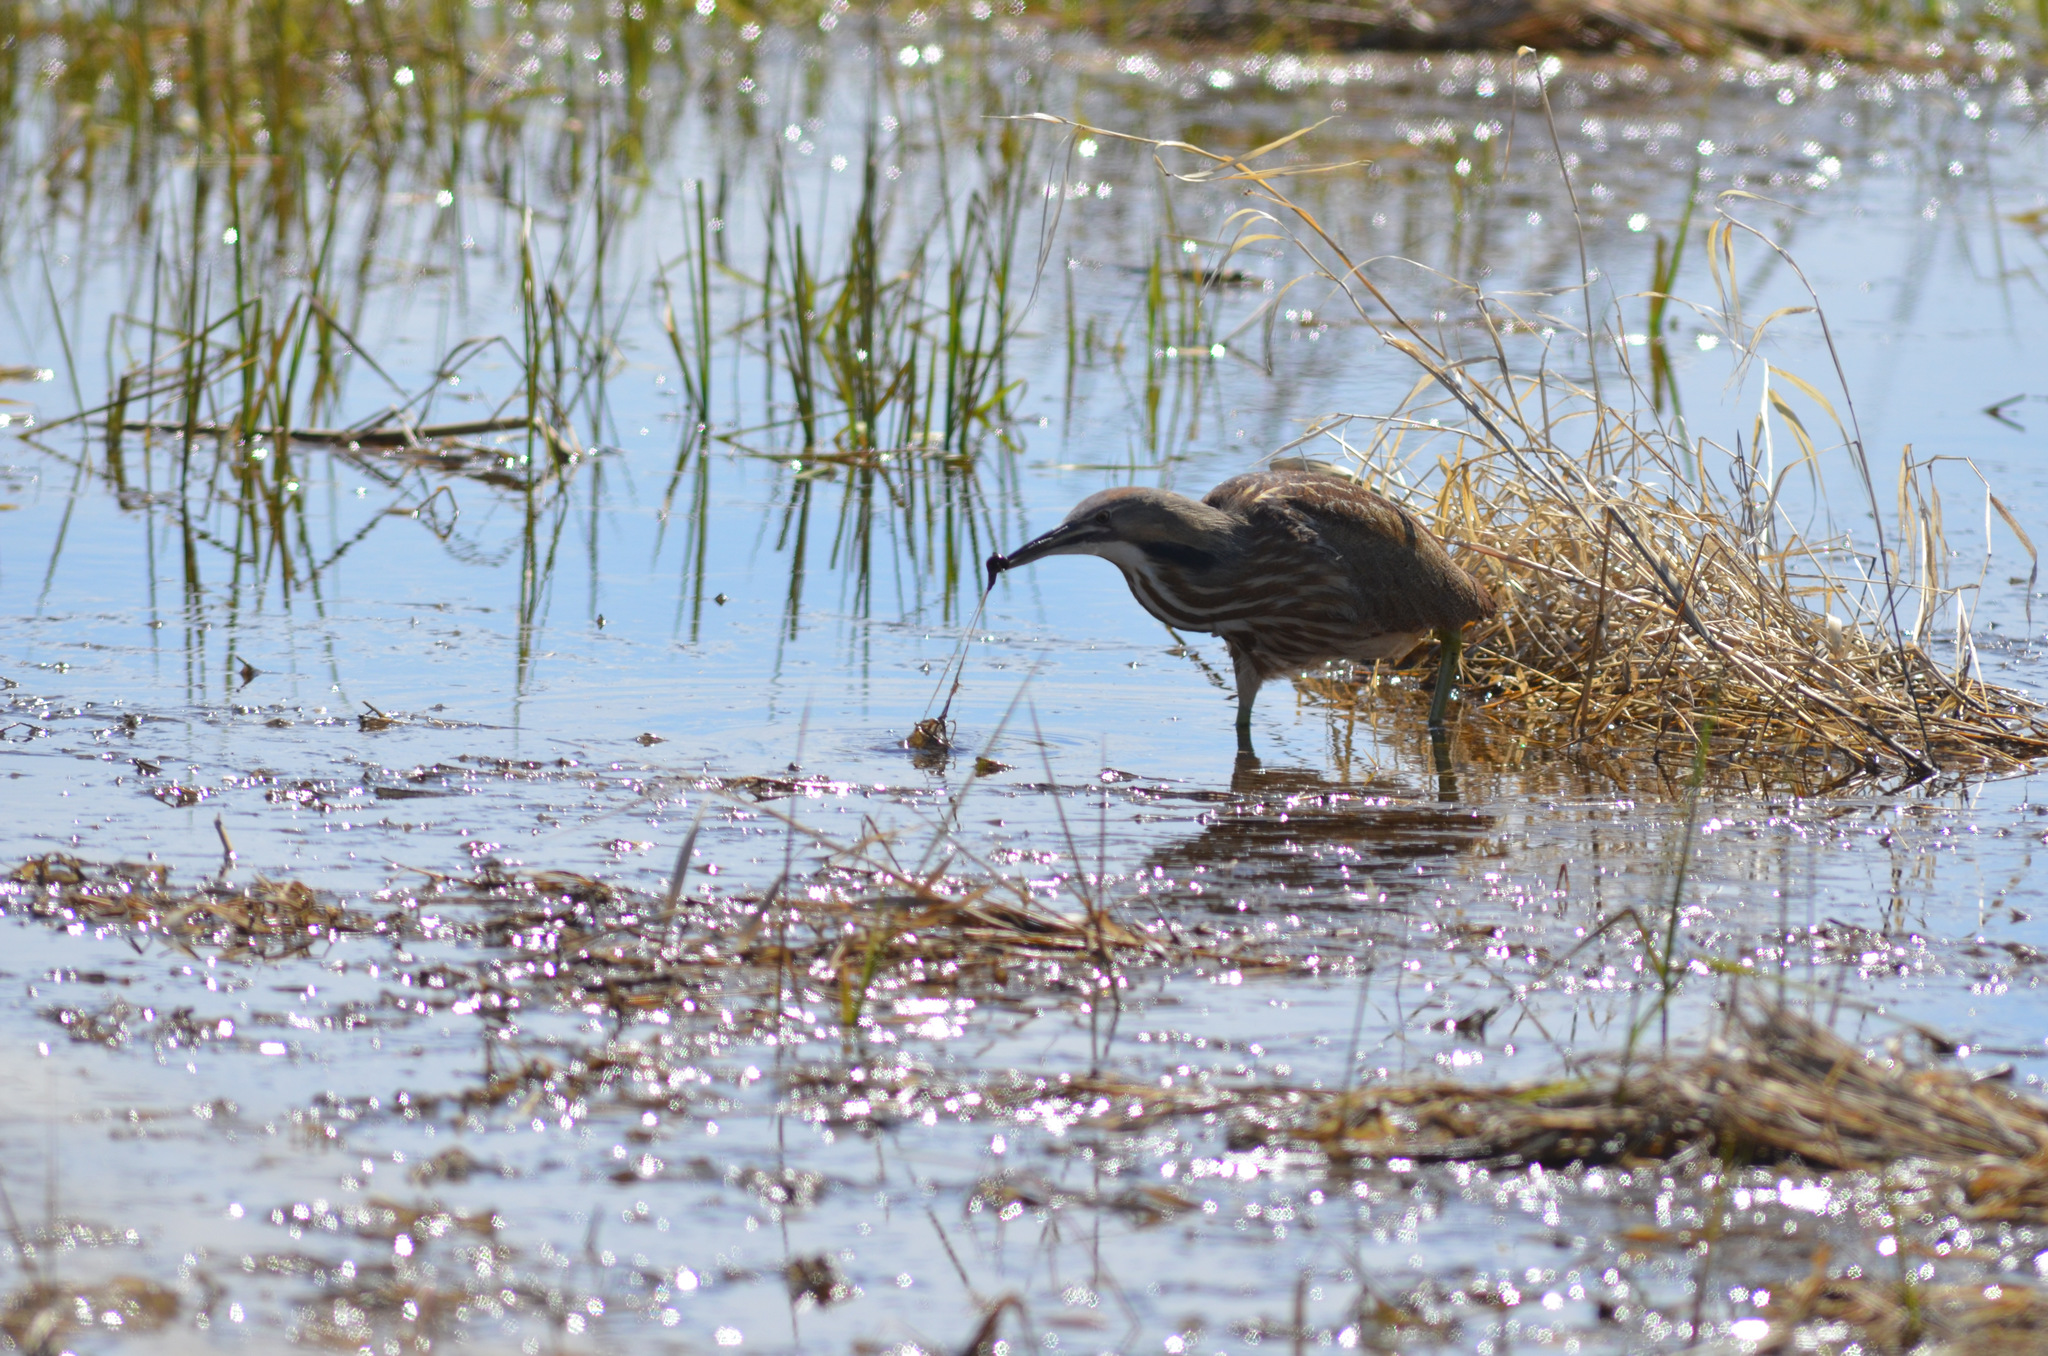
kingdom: Animalia
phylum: Chordata
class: Aves
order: Pelecaniformes
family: Ardeidae
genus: Botaurus
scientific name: Botaurus lentiginosus
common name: American bittern
